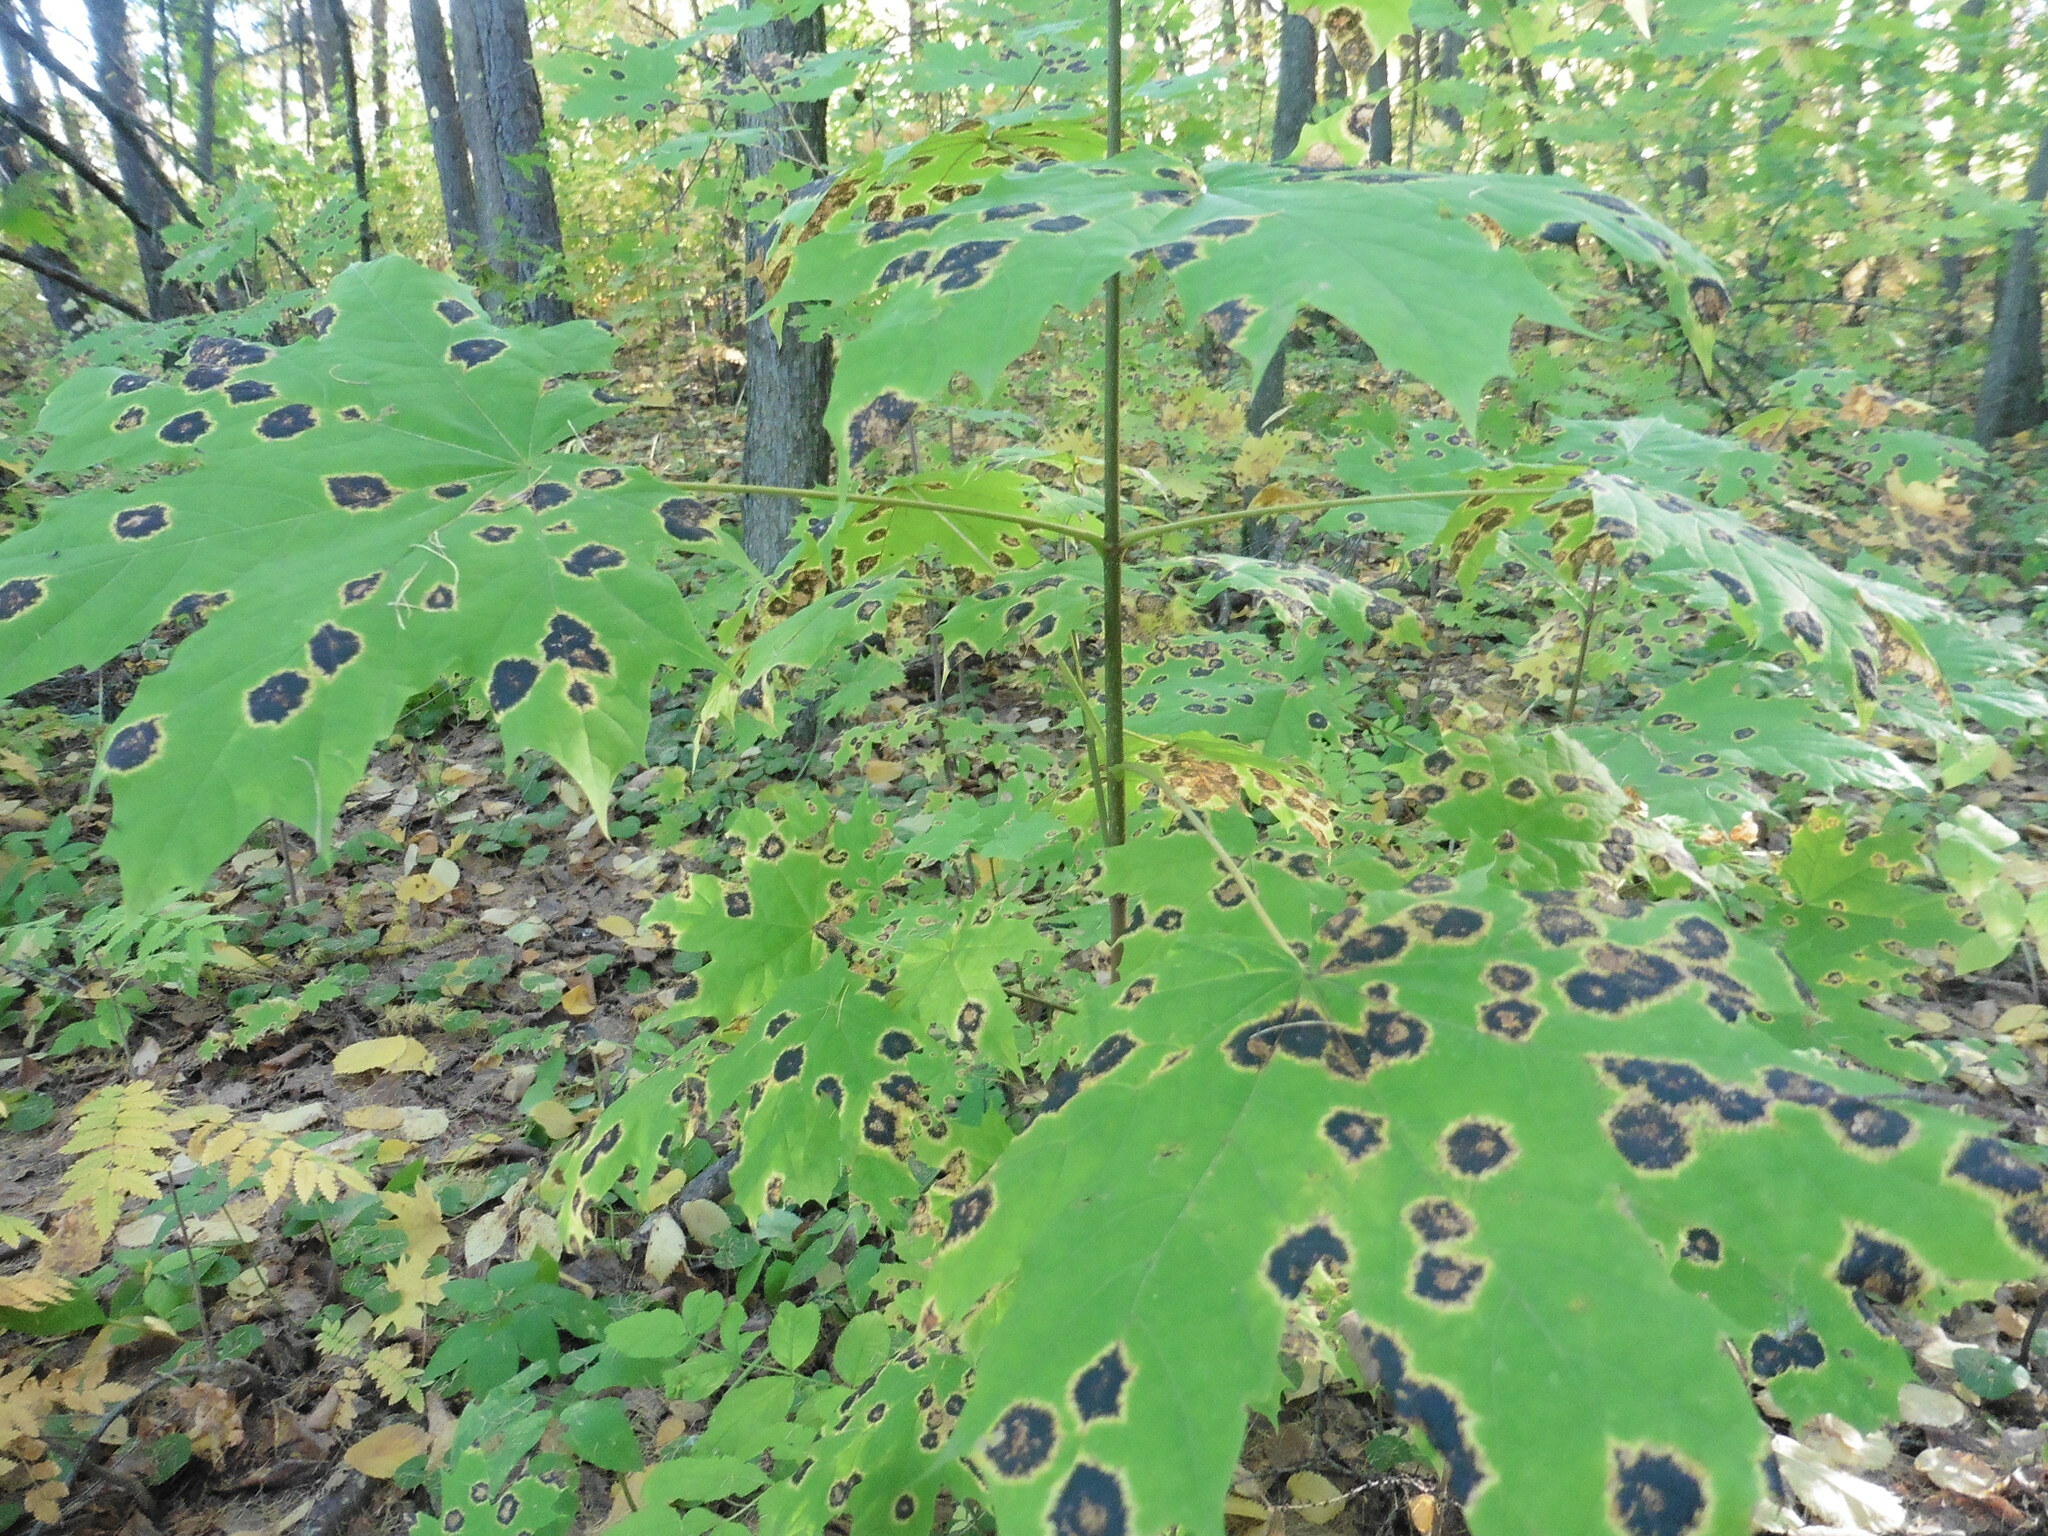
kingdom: Fungi
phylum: Ascomycota
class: Leotiomycetes
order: Rhytismatales
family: Rhytismataceae
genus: Rhytisma
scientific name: Rhytisma acerinum
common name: European tar spot
